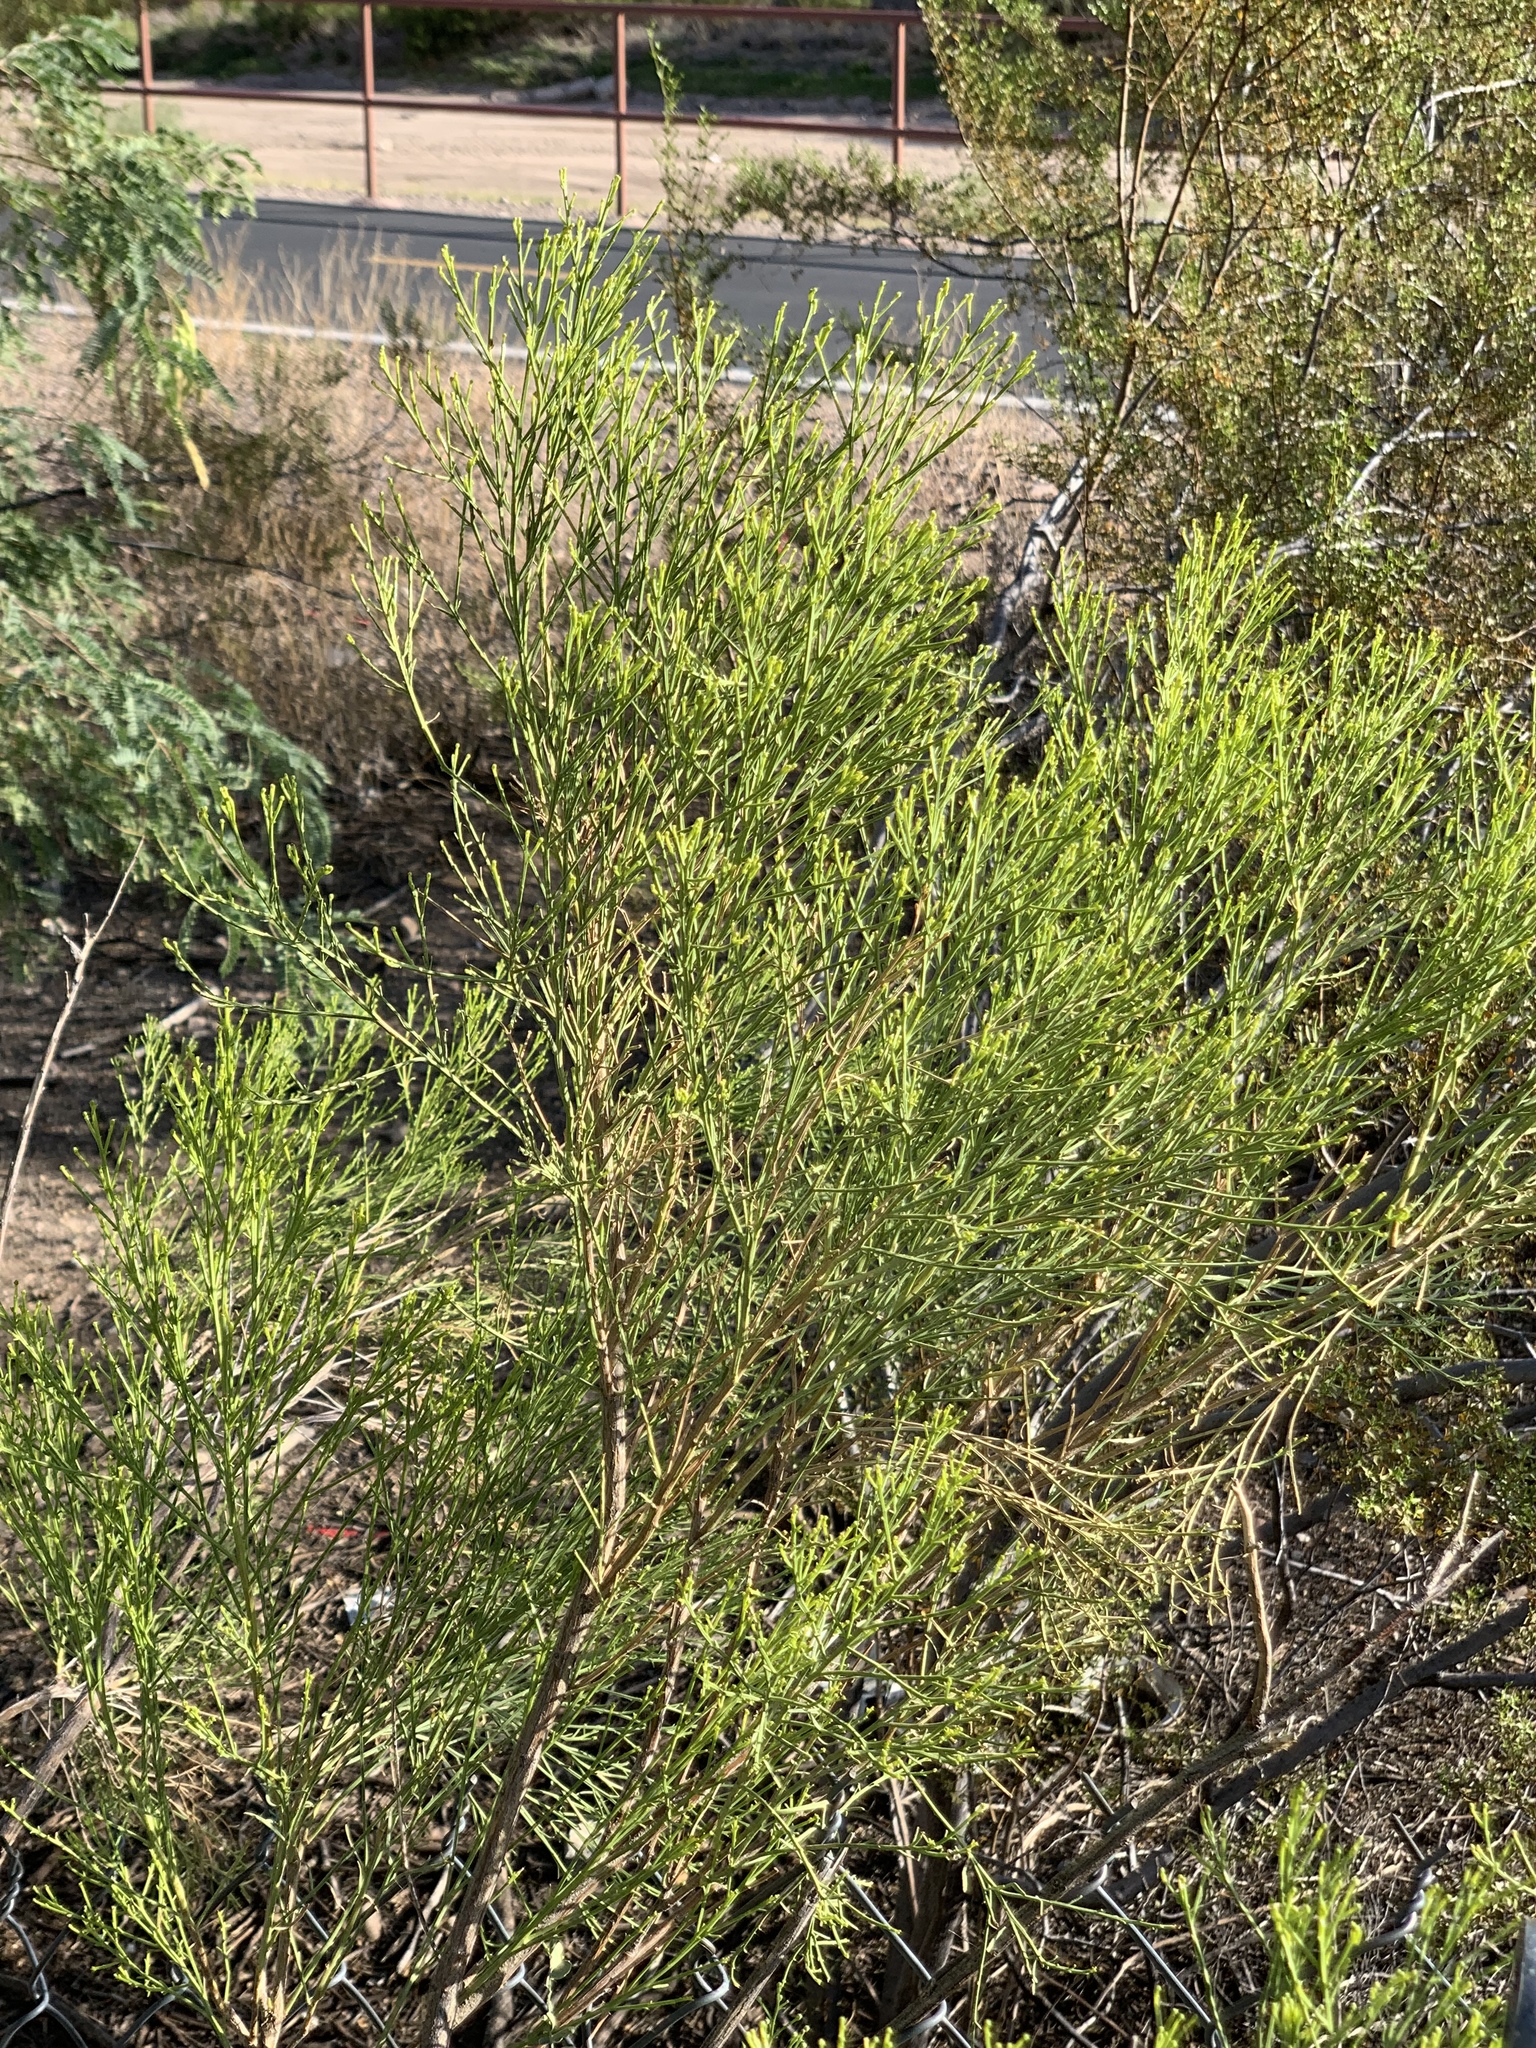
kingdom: Plantae
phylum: Tracheophyta
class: Magnoliopsida
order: Asterales
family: Asteraceae
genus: Baccharis
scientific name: Baccharis sarothroides
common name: Desert-broom
